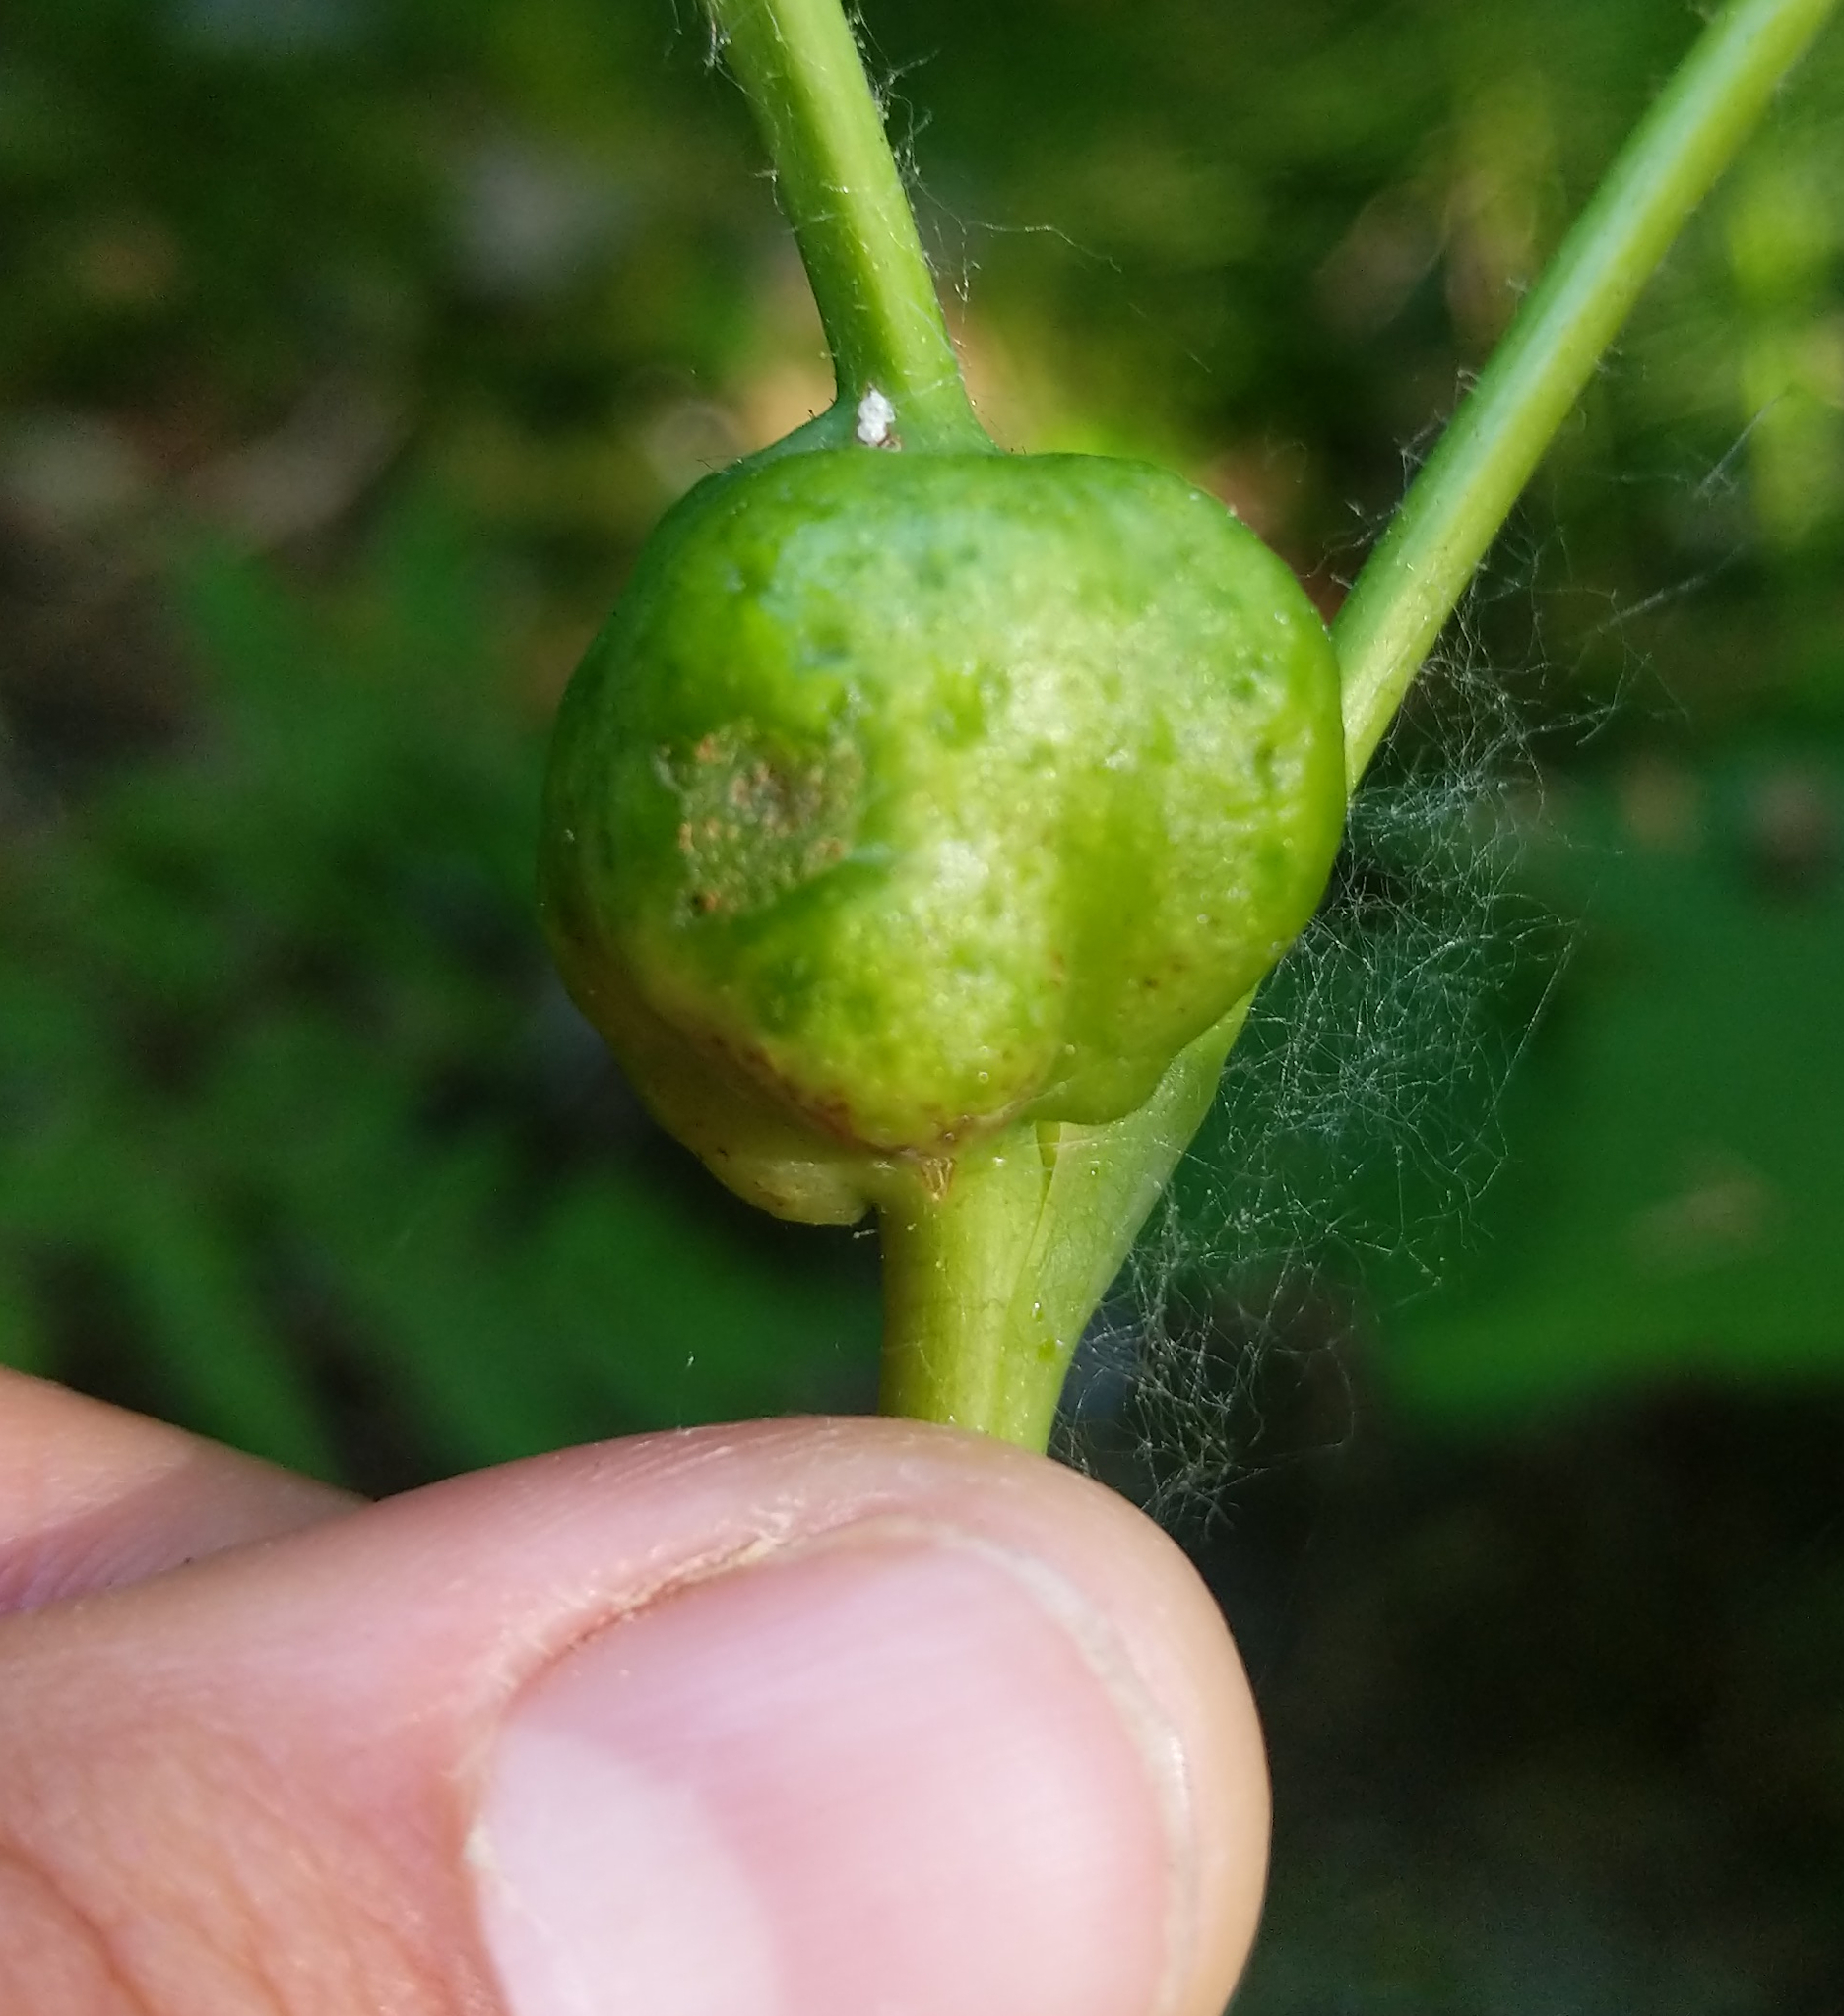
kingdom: Animalia
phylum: Arthropoda
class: Insecta
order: Hymenoptera
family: Cynipidae
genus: Diastrophus
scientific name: Diastrophus
